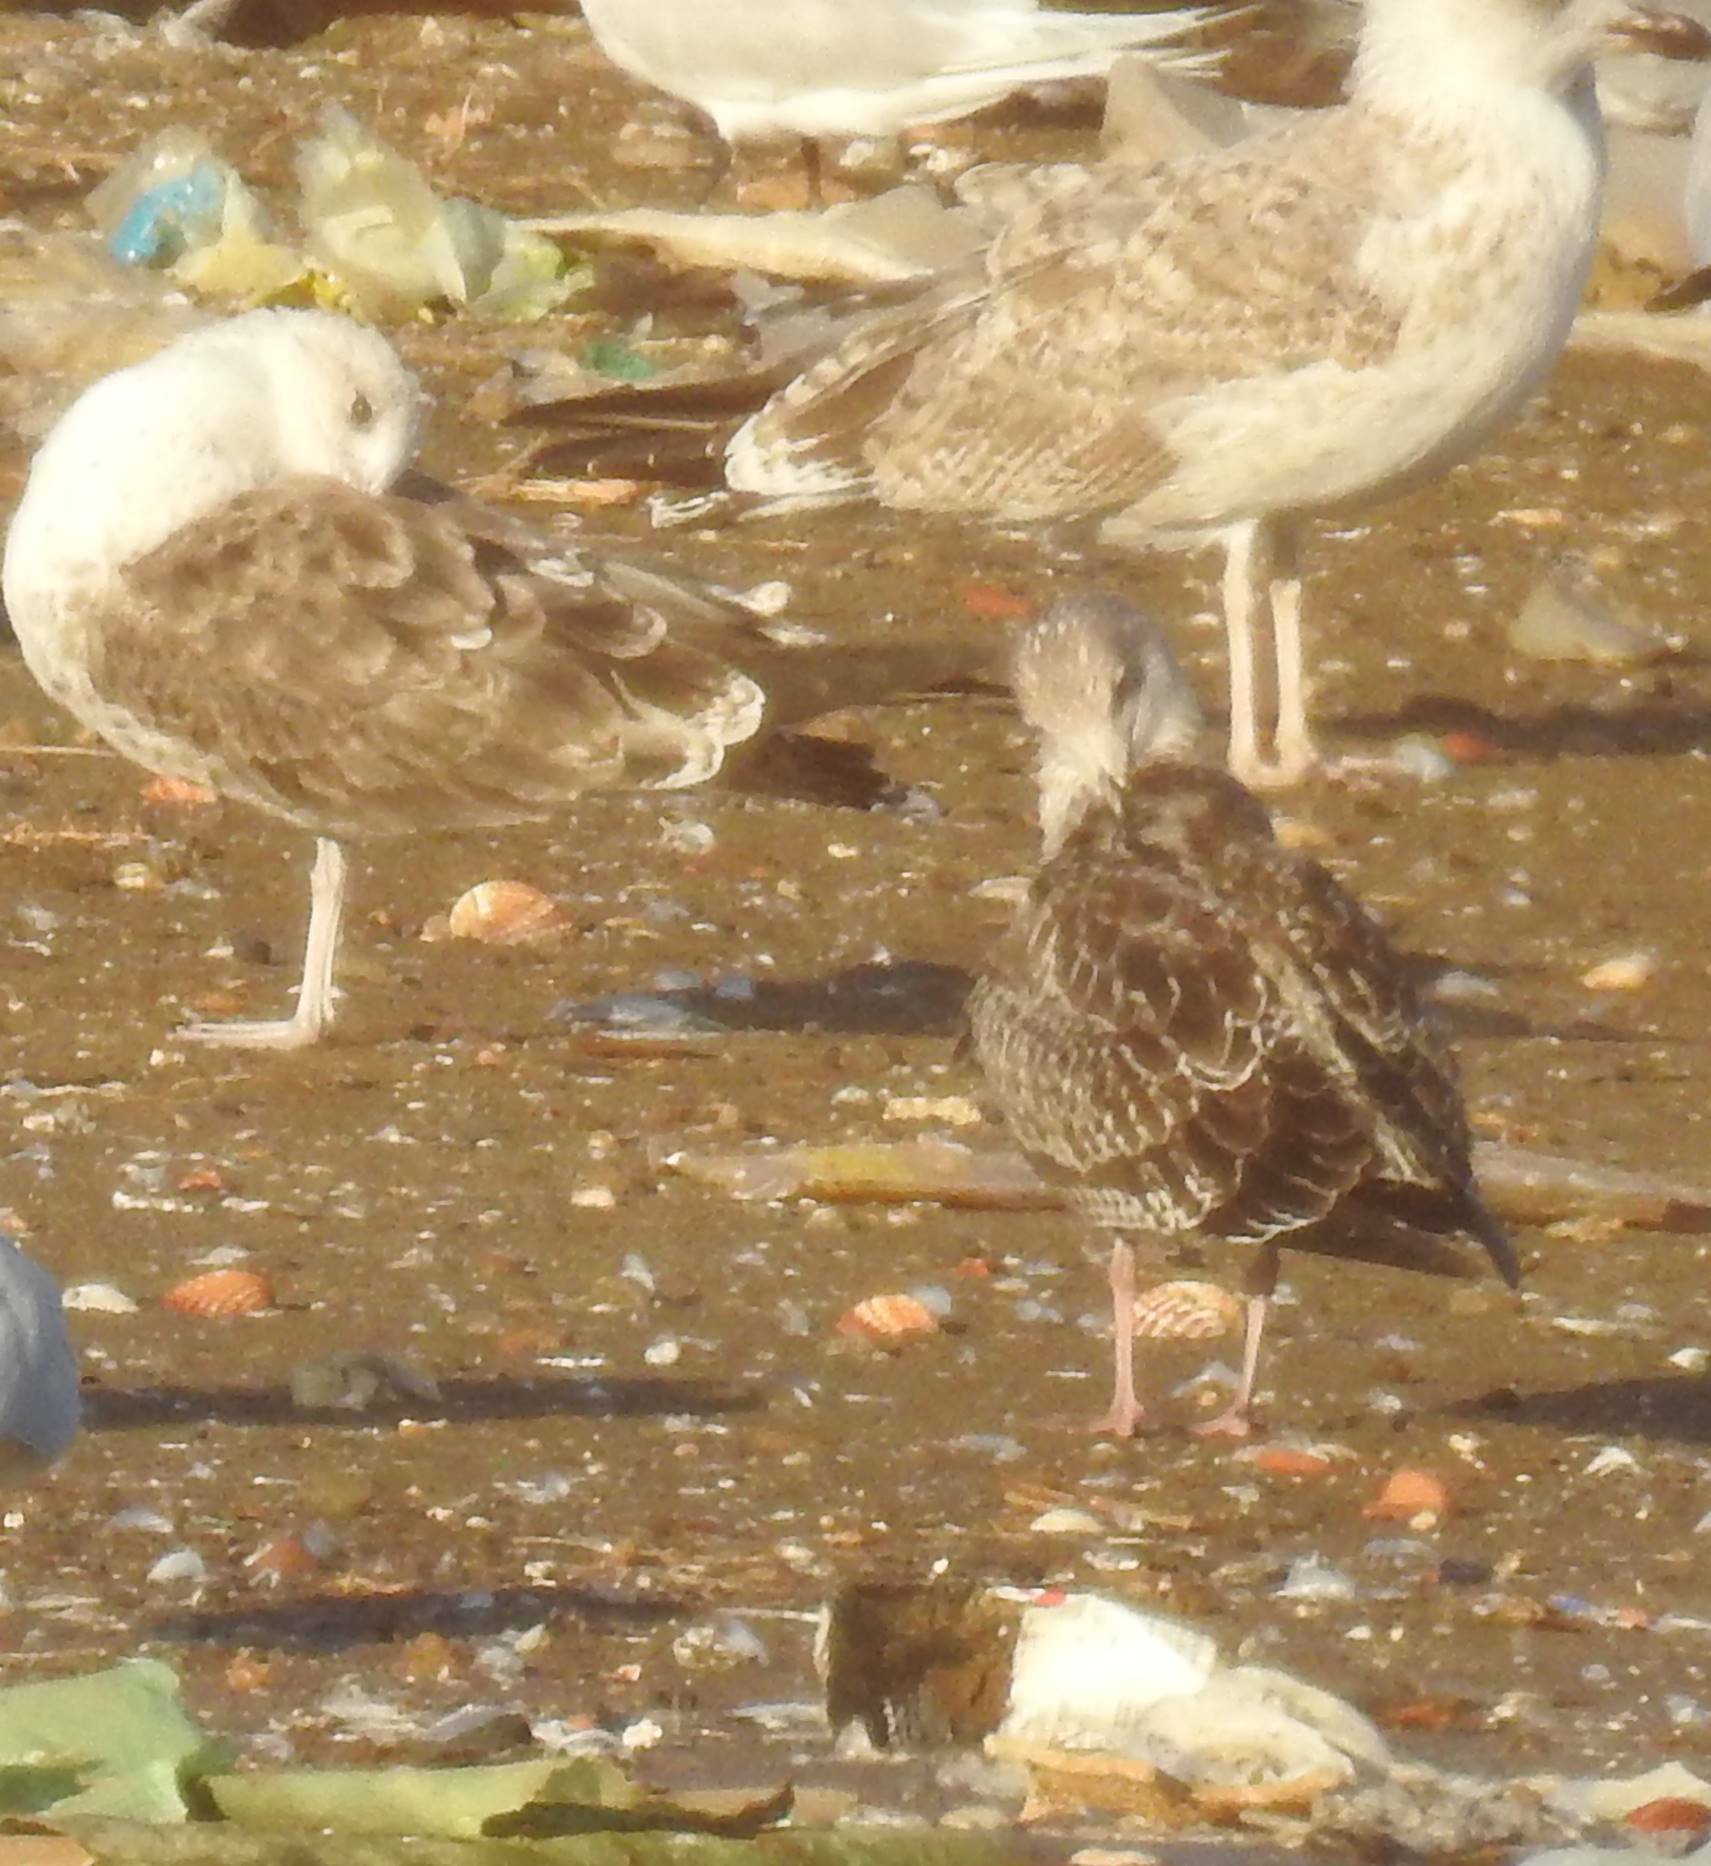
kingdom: Animalia
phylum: Chordata
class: Aves
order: Charadriiformes
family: Laridae
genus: Larus
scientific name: Larus fuscus
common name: Lesser black-backed gull
